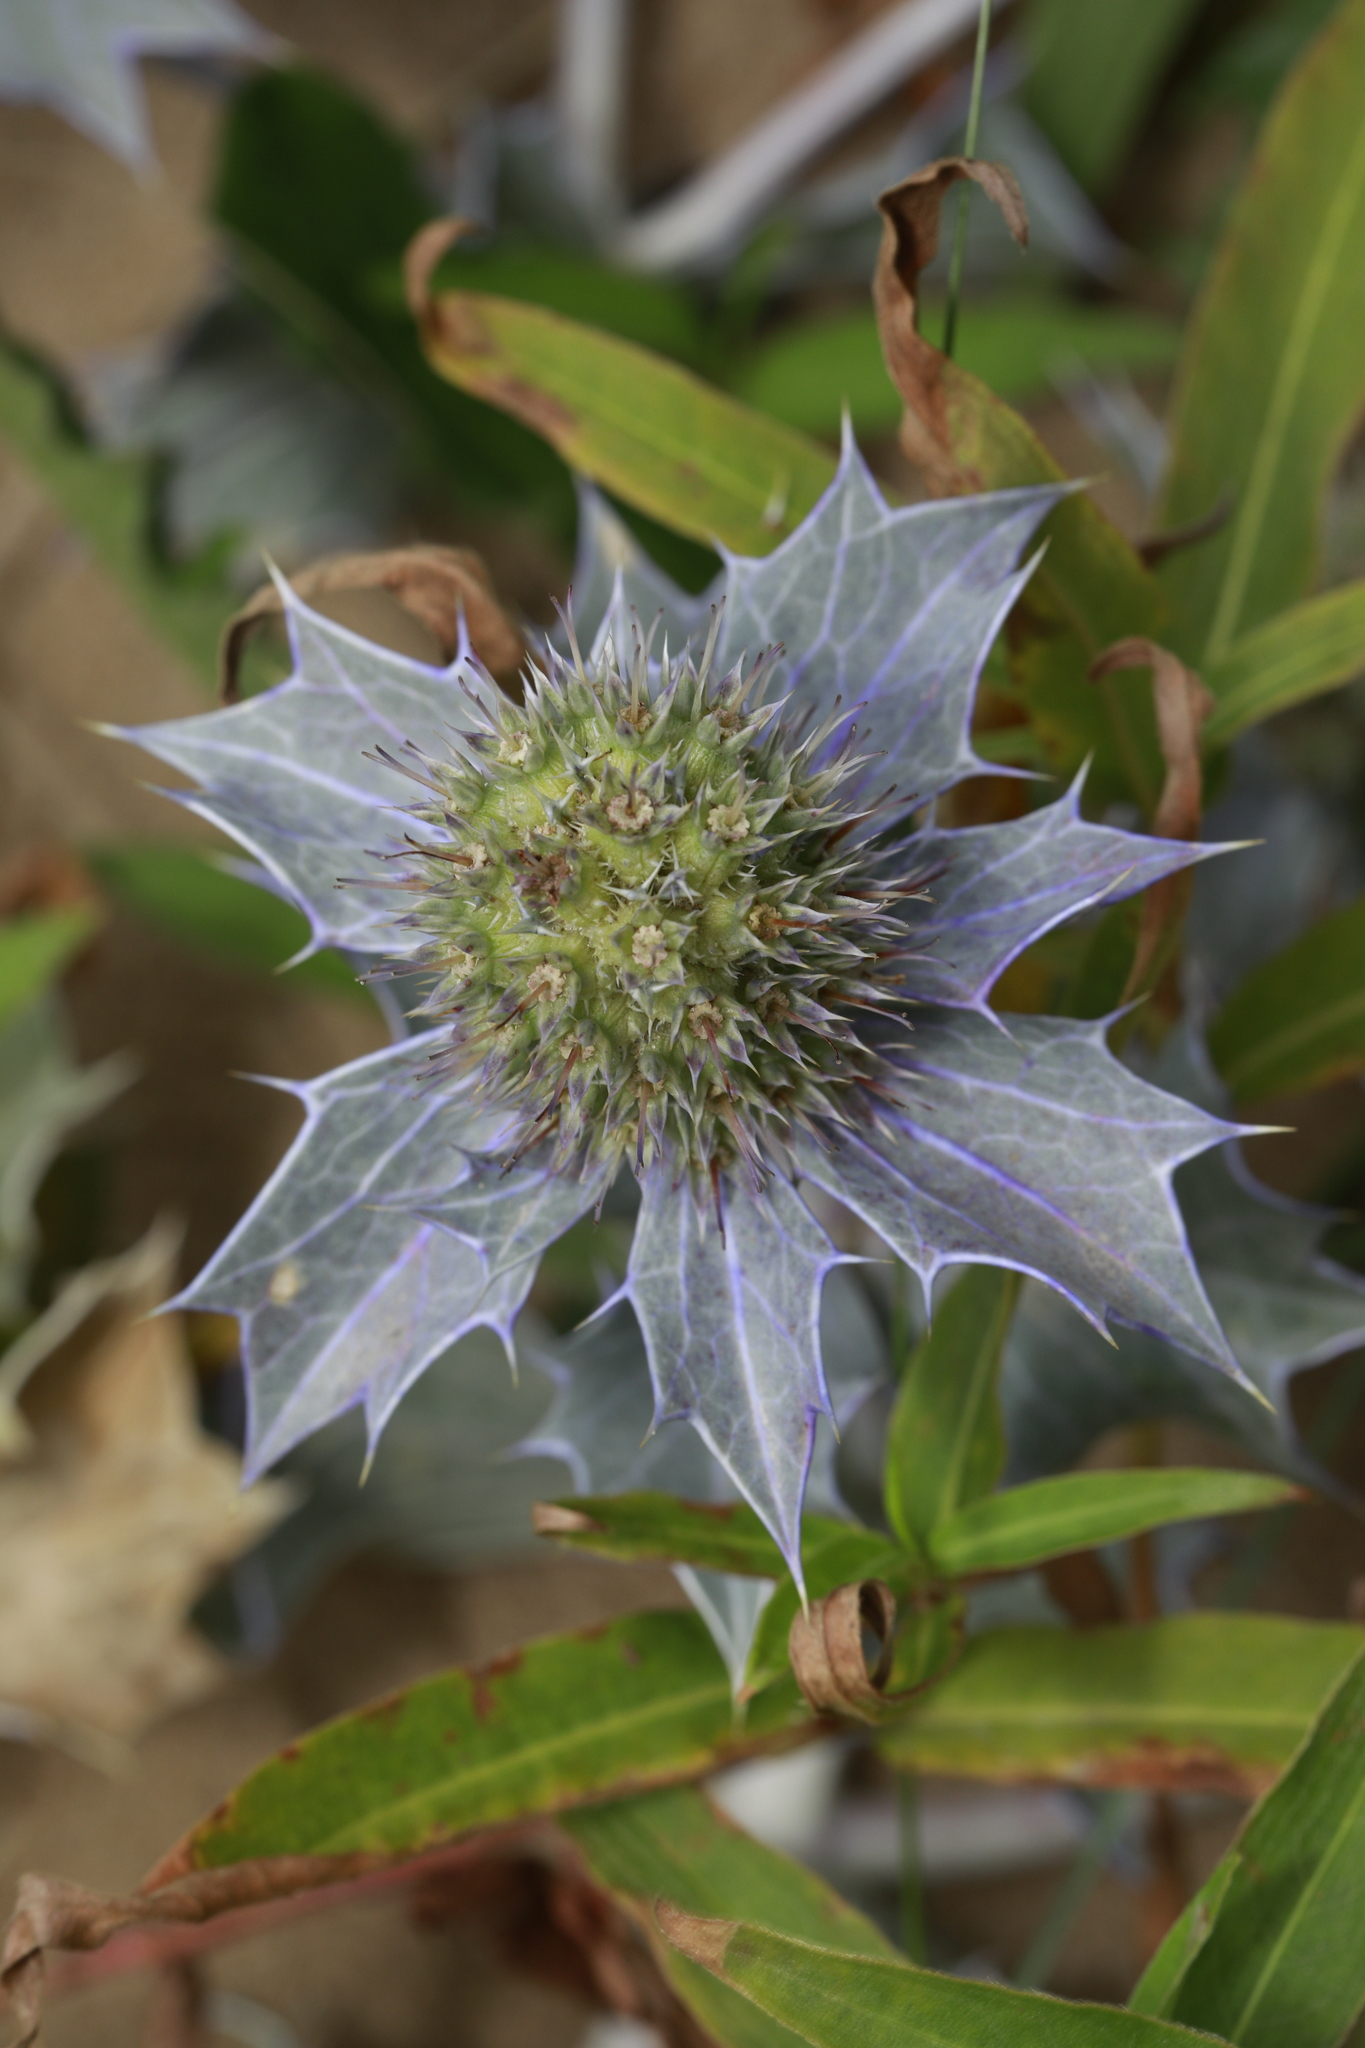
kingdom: Plantae
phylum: Tracheophyta
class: Magnoliopsida
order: Apiales
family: Apiaceae
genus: Eryngium
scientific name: Eryngium maritimum
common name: Sea-holly
